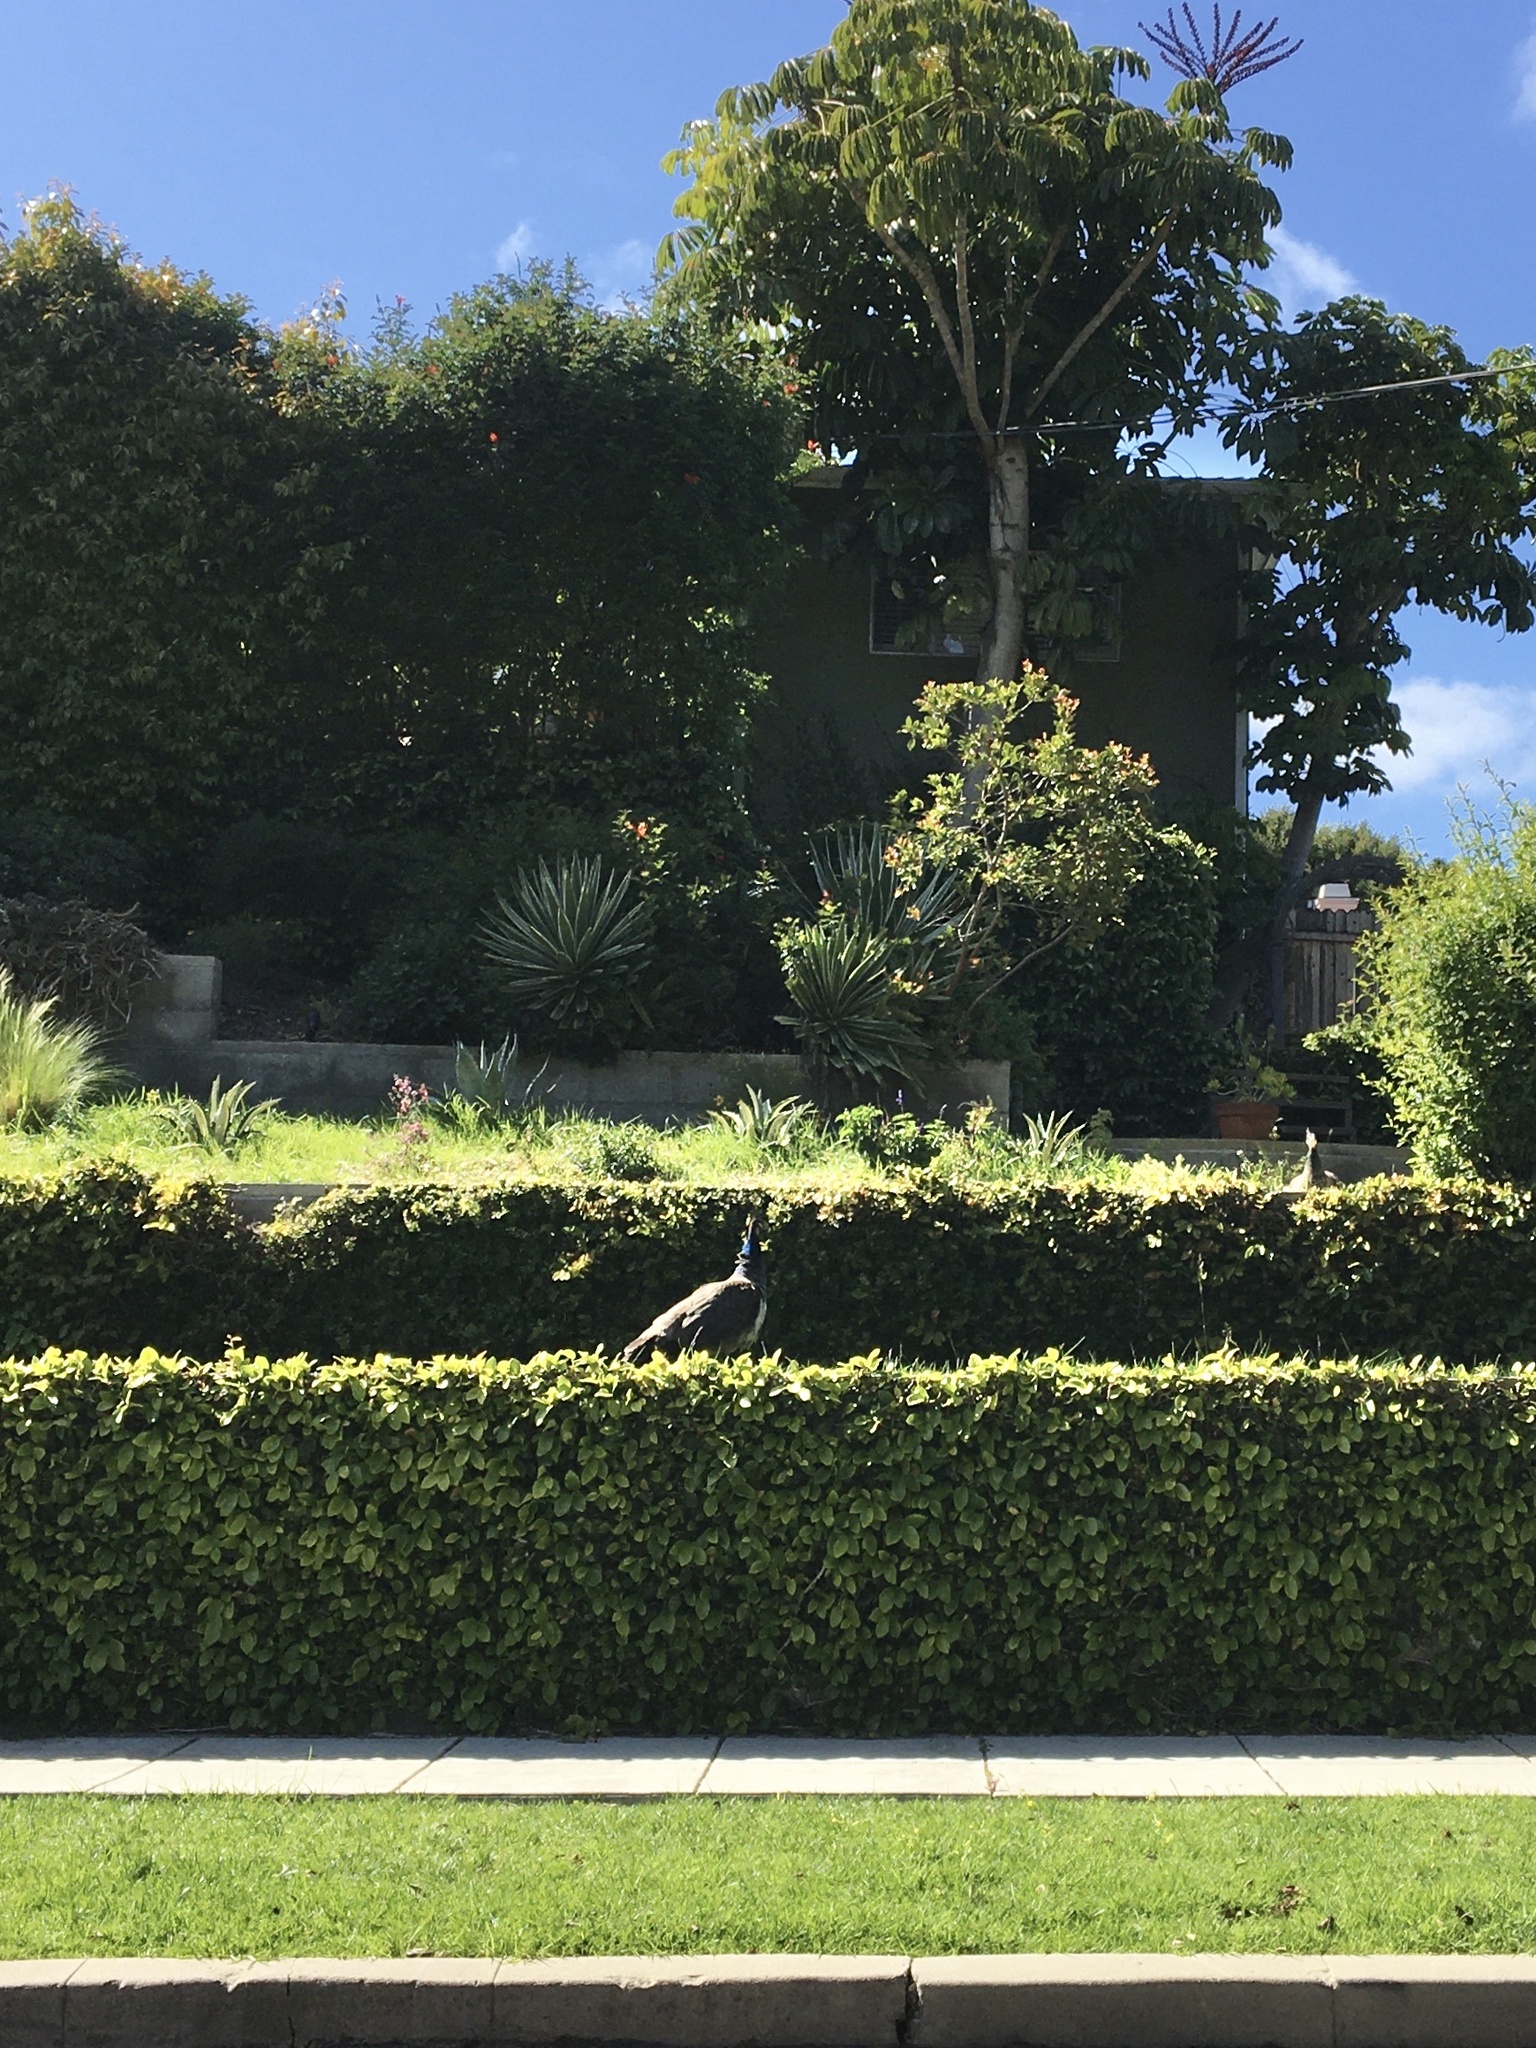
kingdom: Animalia
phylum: Chordata
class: Aves
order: Galliformes
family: Phasianidae
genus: Pavo
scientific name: Pavo cristatus
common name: Indian peafowl
